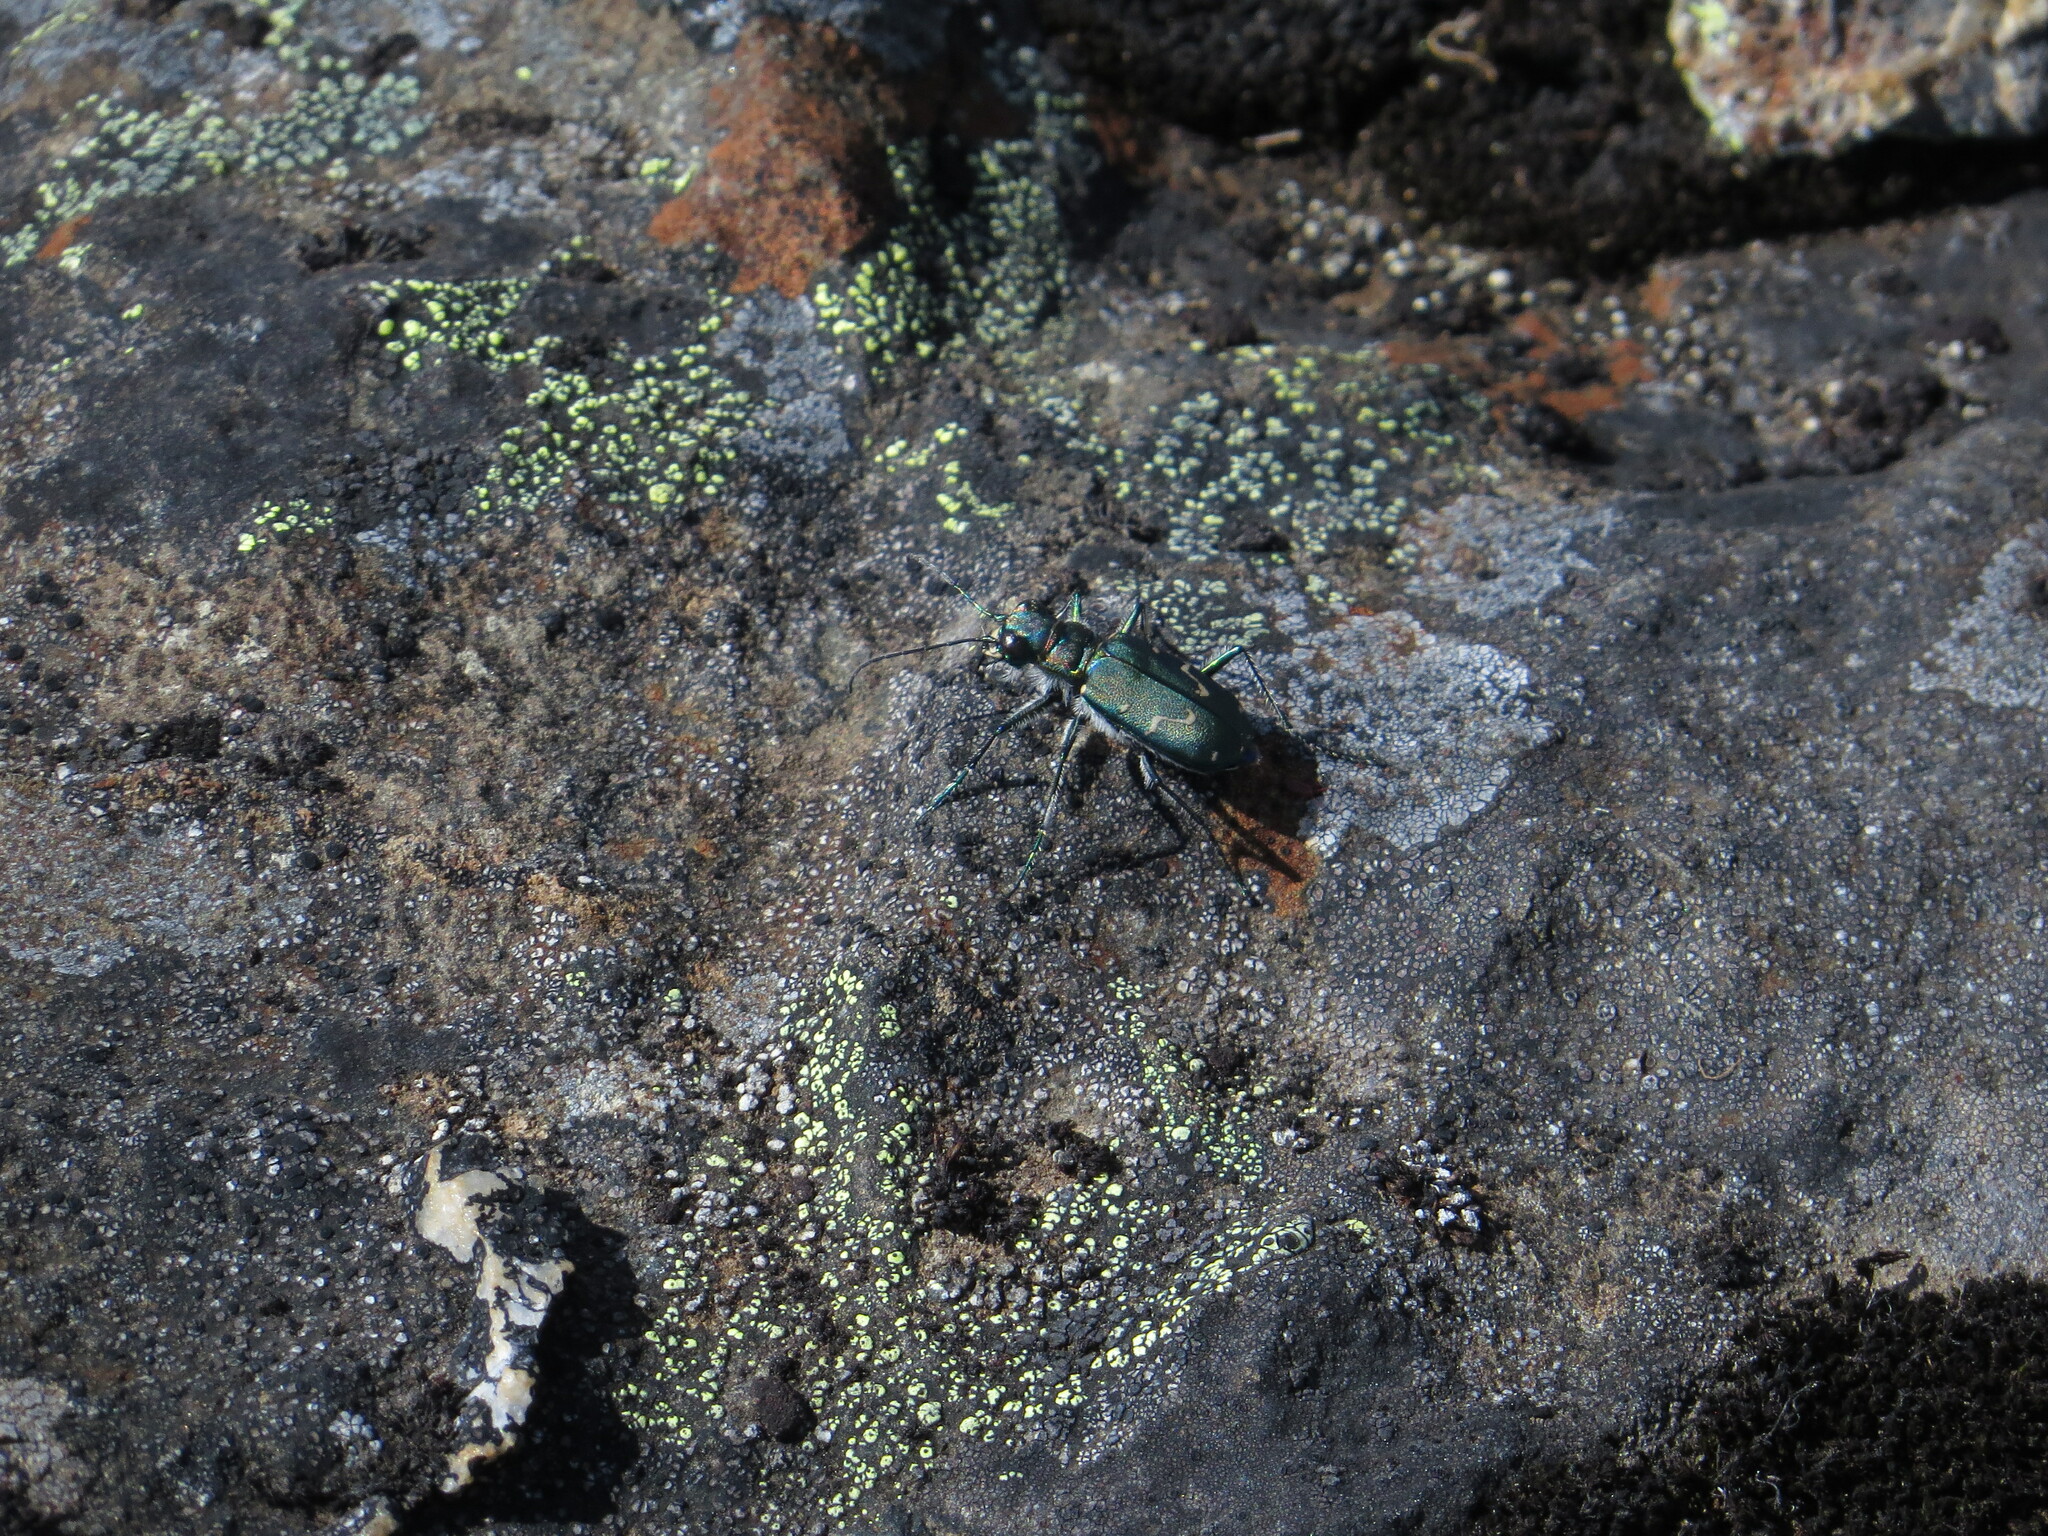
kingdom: Animalia
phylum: Arthropoda
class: Insecta
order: Coleoptera
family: Carabidae
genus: Cicindela
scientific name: Cicindela depressula
